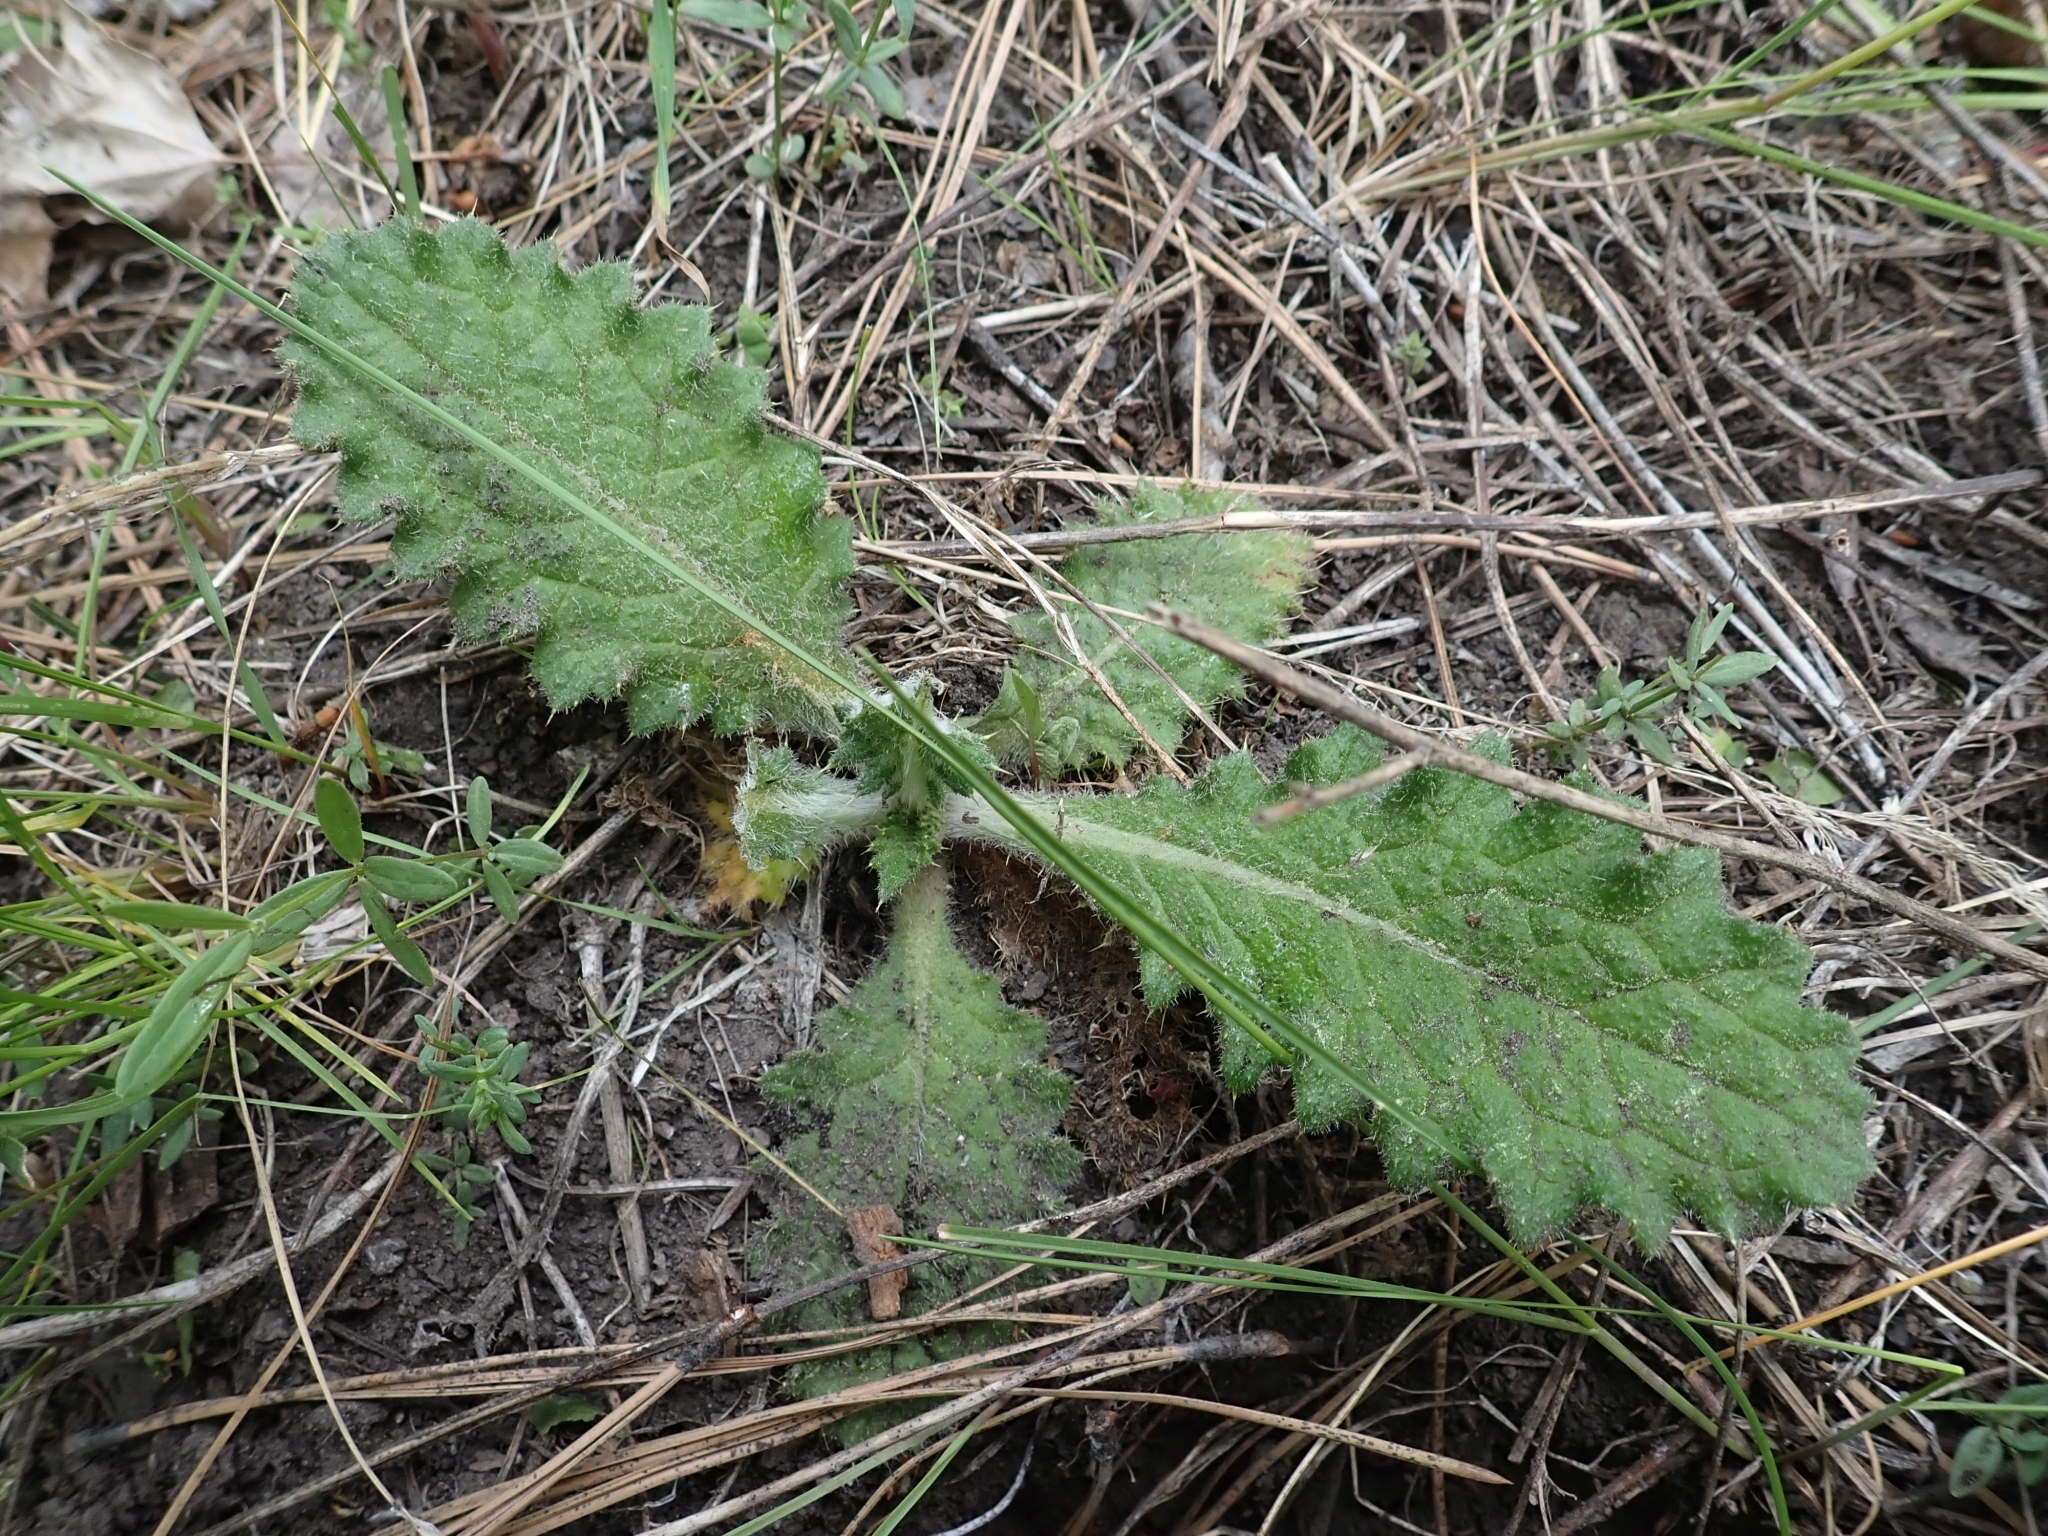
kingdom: Plantae
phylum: Tracheophyta
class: Magnoliopsida
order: Asterales
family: Asteraceae
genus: Cirsium
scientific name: Cirsium vulgare
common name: Bull thistle
